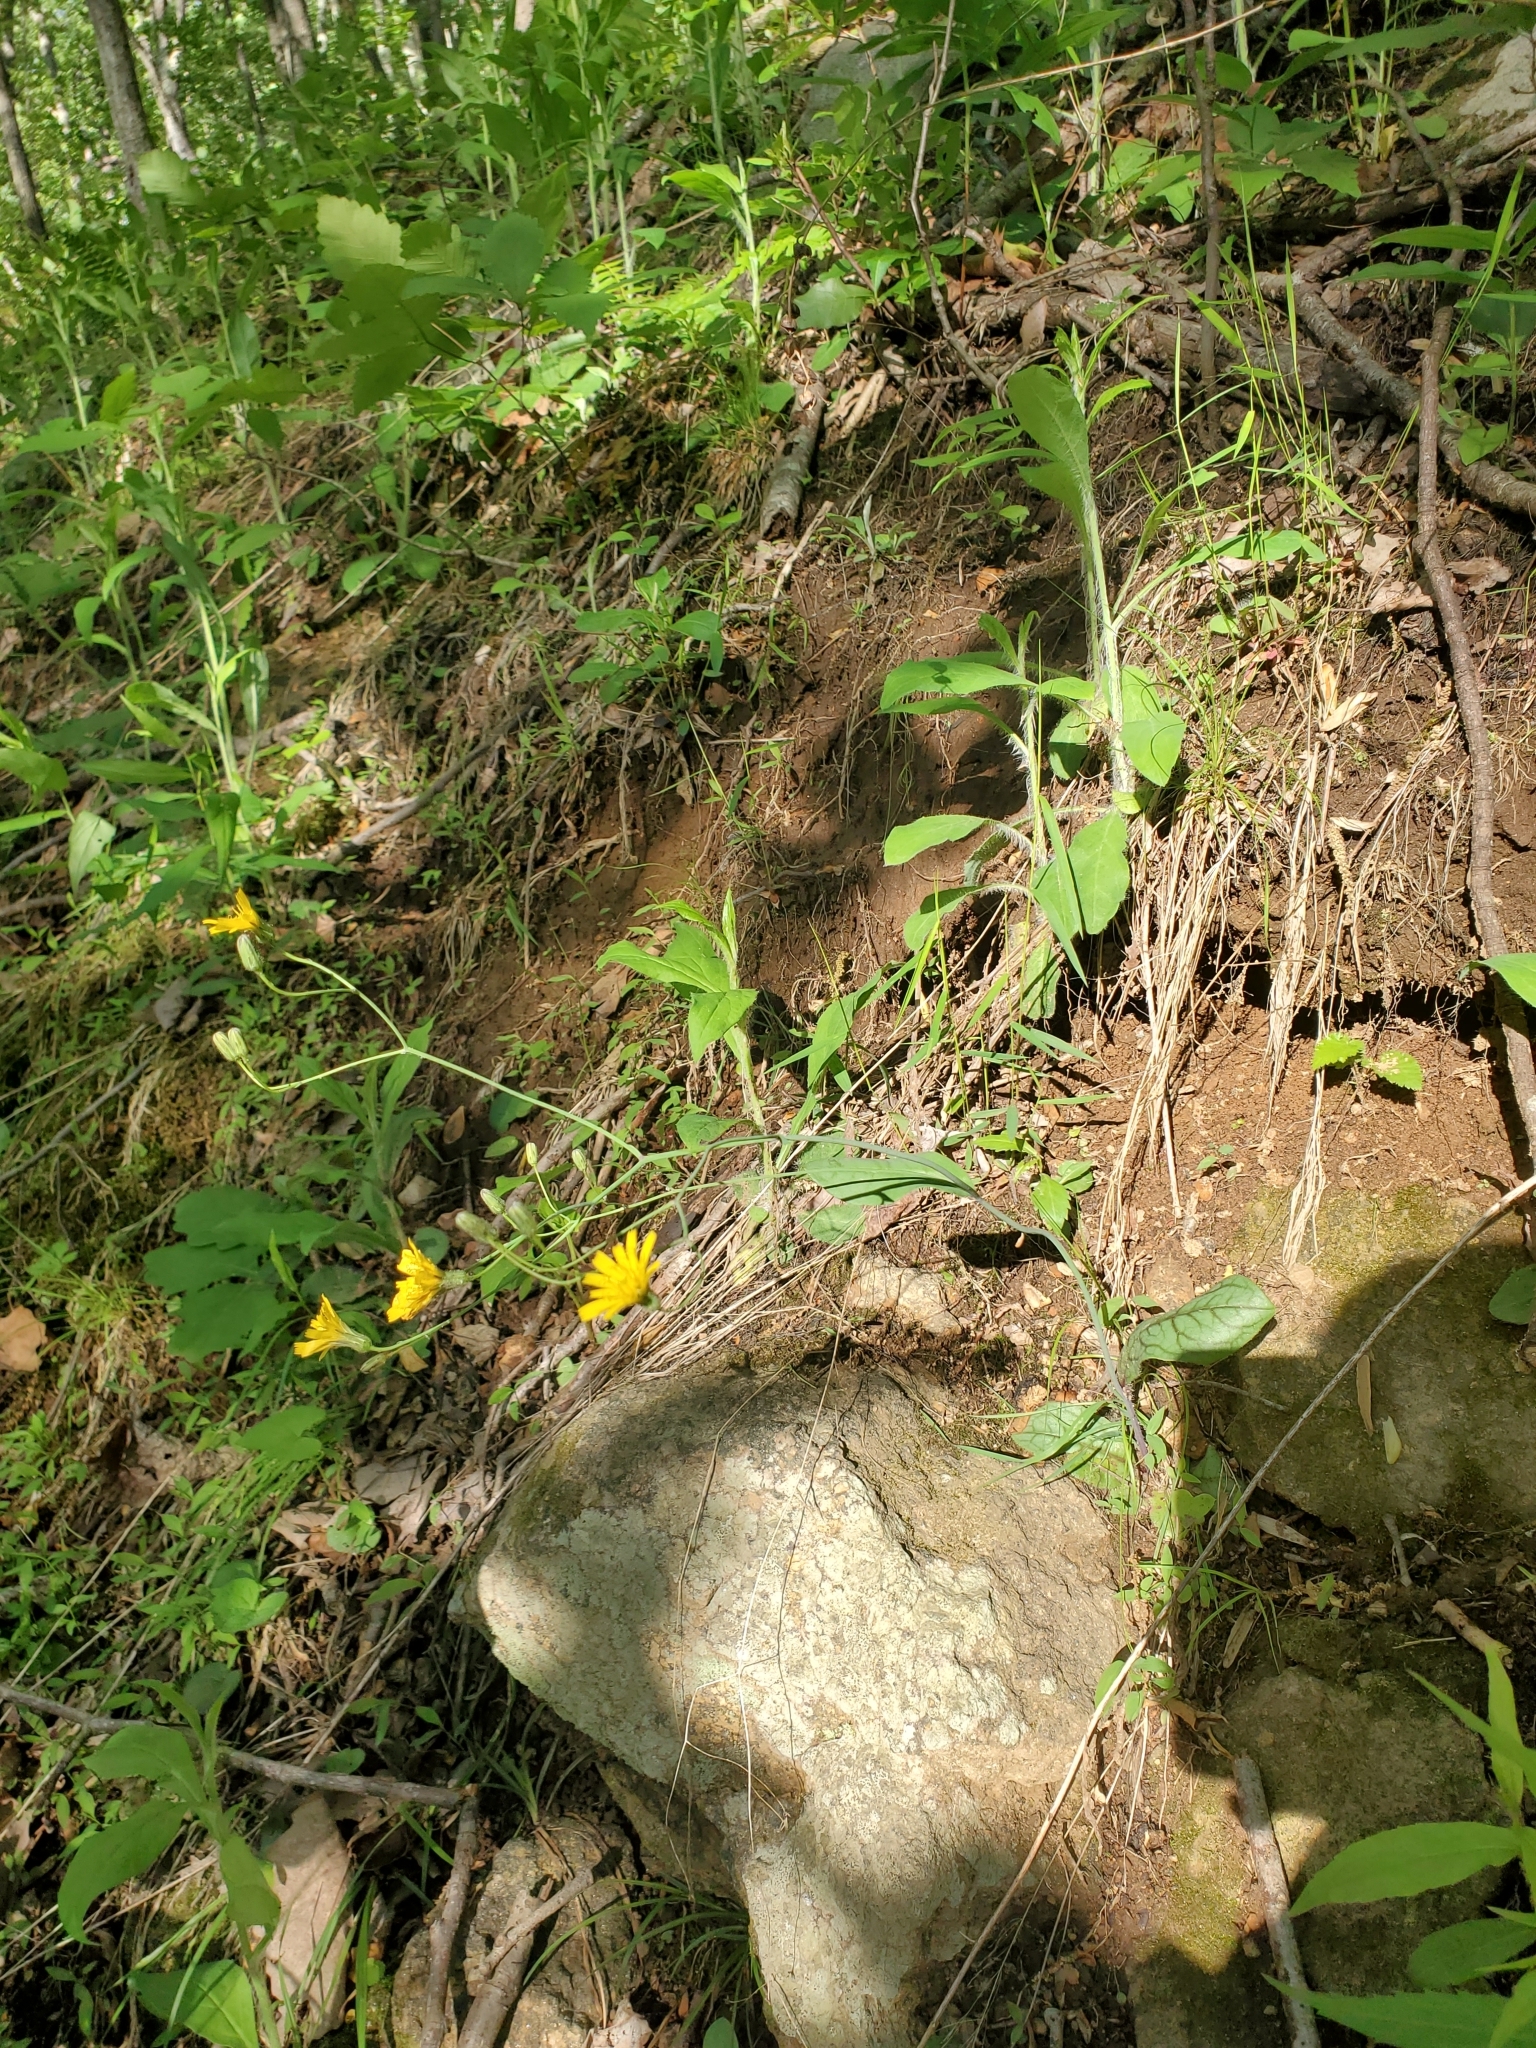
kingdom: Plantae
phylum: Tracheophyta
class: Magnoliopsida
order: Asterales
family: Asteraceae
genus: Hieracium
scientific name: Hieracium venosum
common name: Rattlesnake hawkweed
